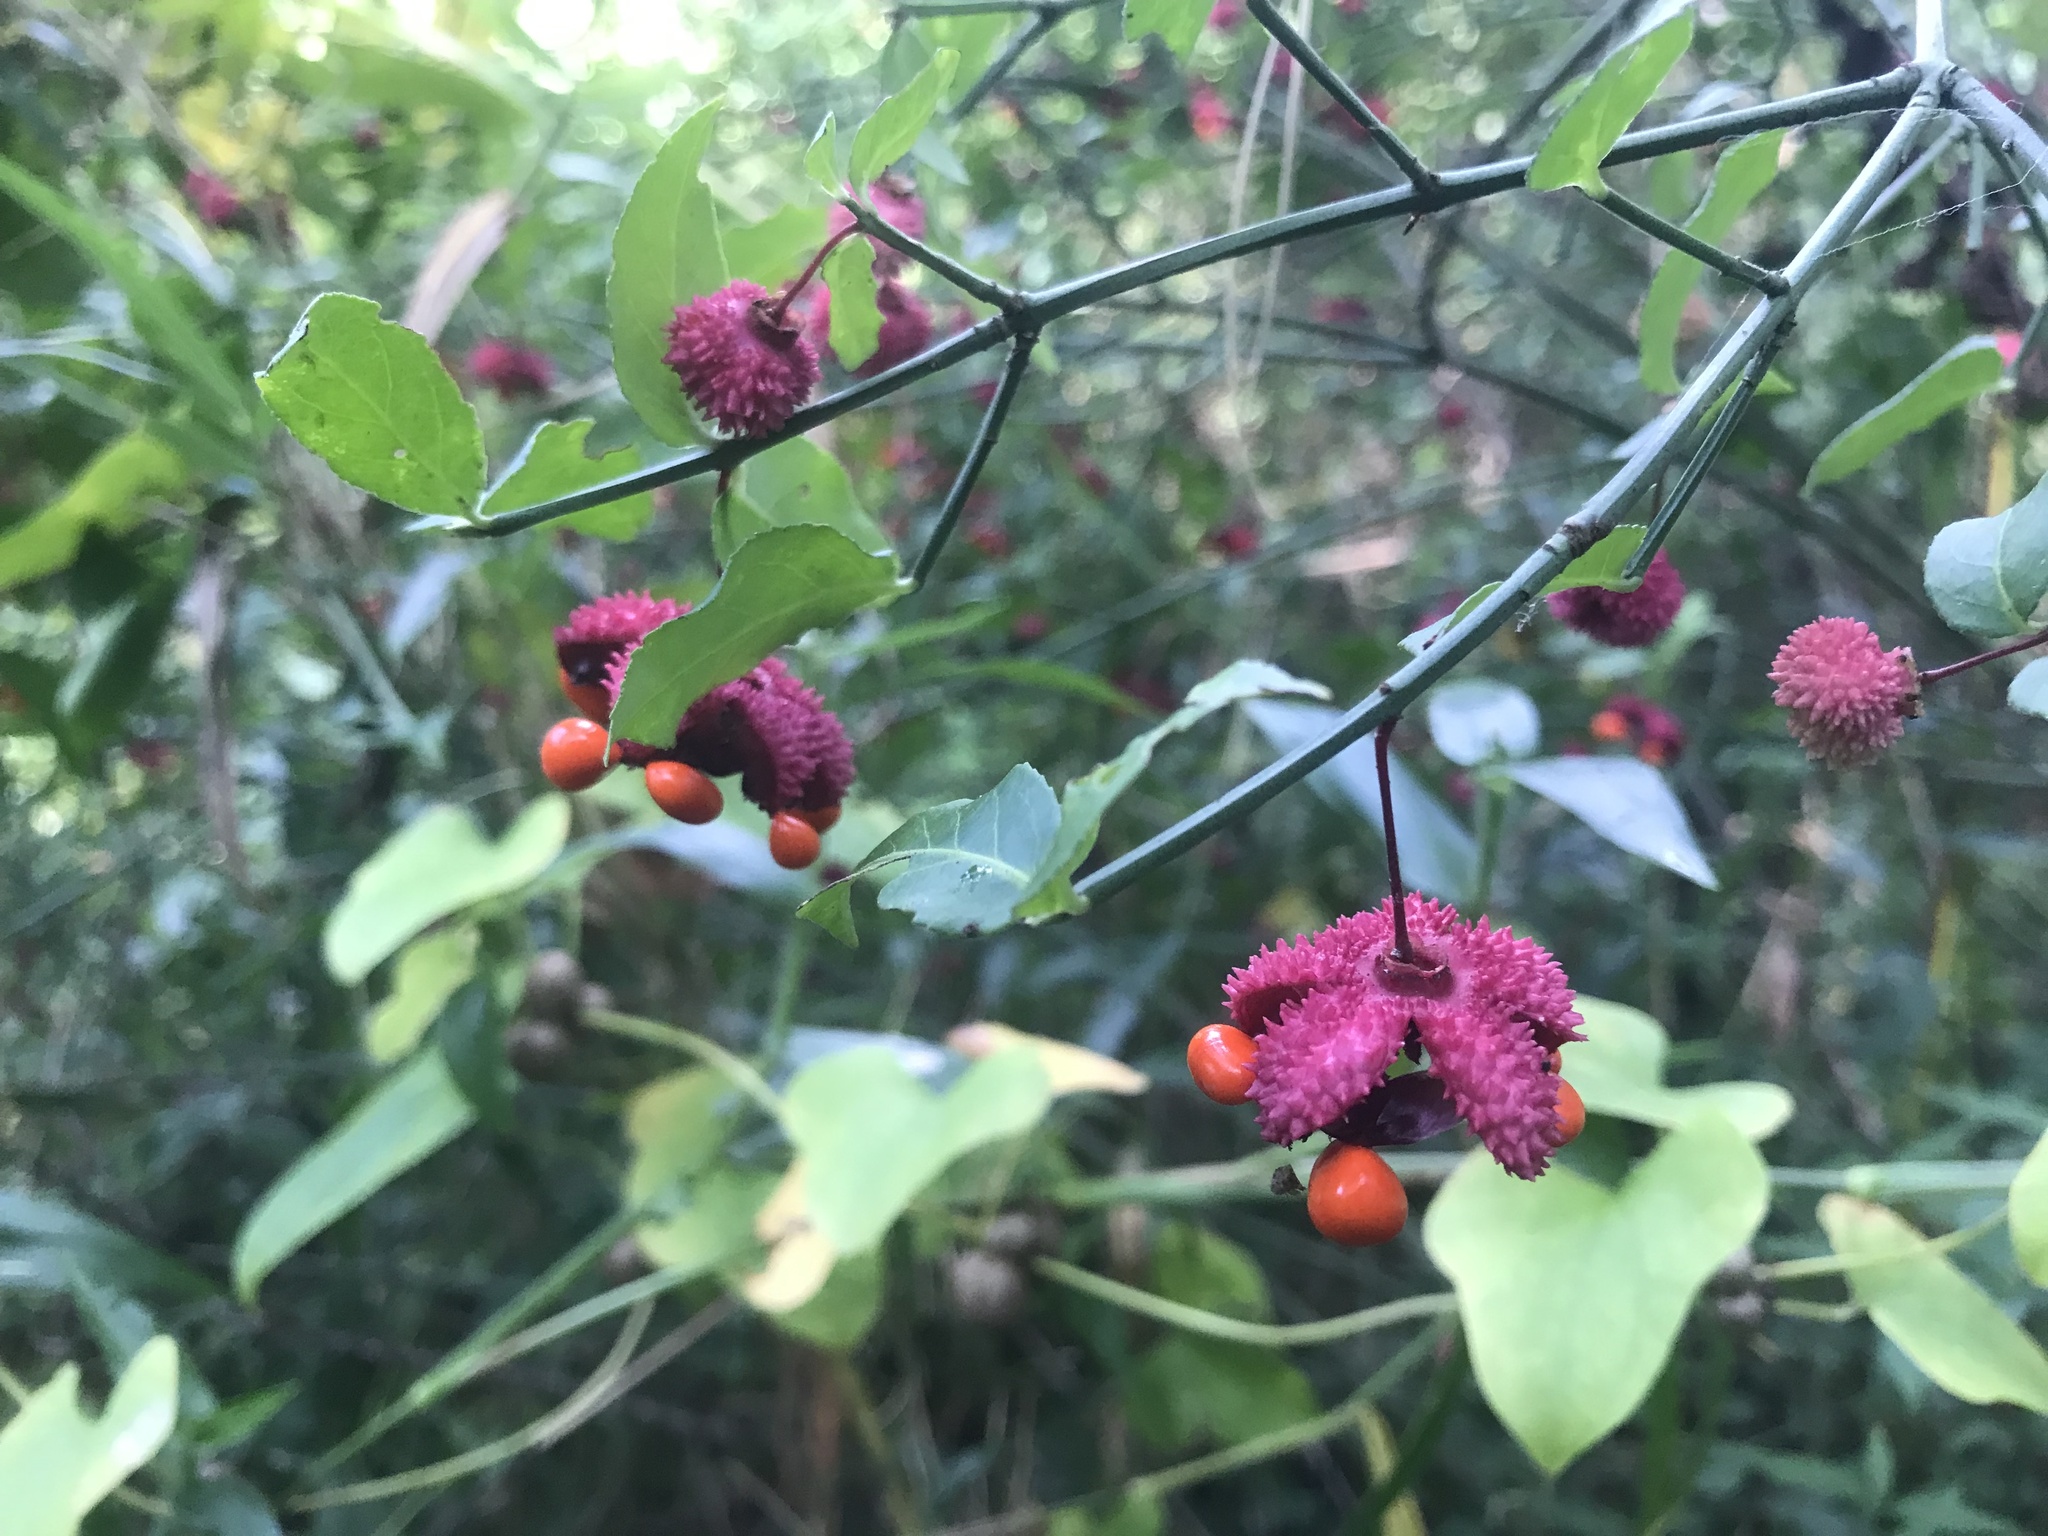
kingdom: Plantae
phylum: Tracheophyta
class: Magnoliopsida
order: Celastrales
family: Celastraceae
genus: Euonymus
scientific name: Euonymus americanus
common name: Bursting-heart
